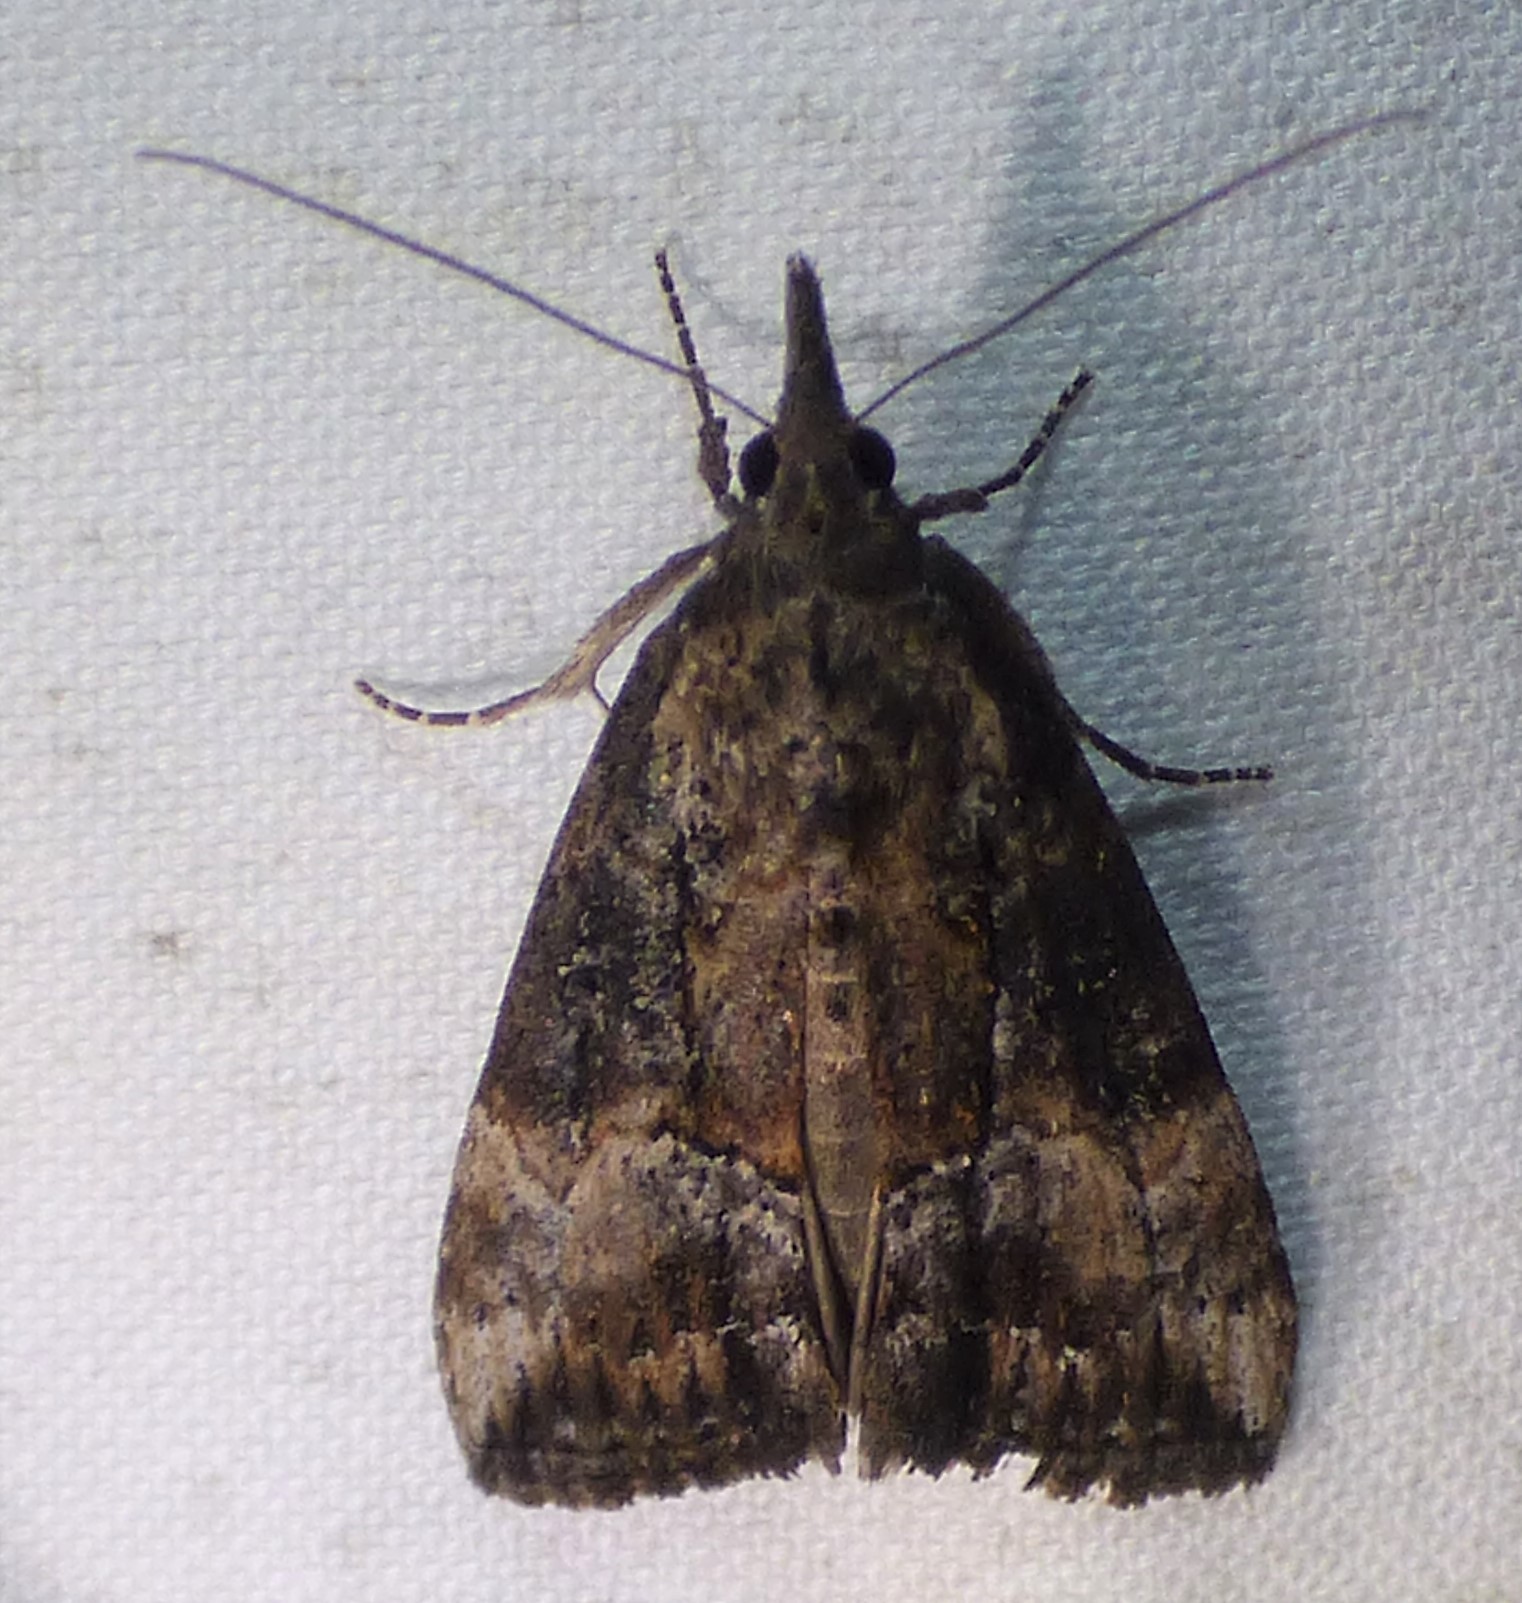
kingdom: Animalia
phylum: Arthropoda
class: Insecta
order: Lepidoptera
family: Erebidae
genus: Hypena
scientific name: Hypena scabra
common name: Green cloverworm
